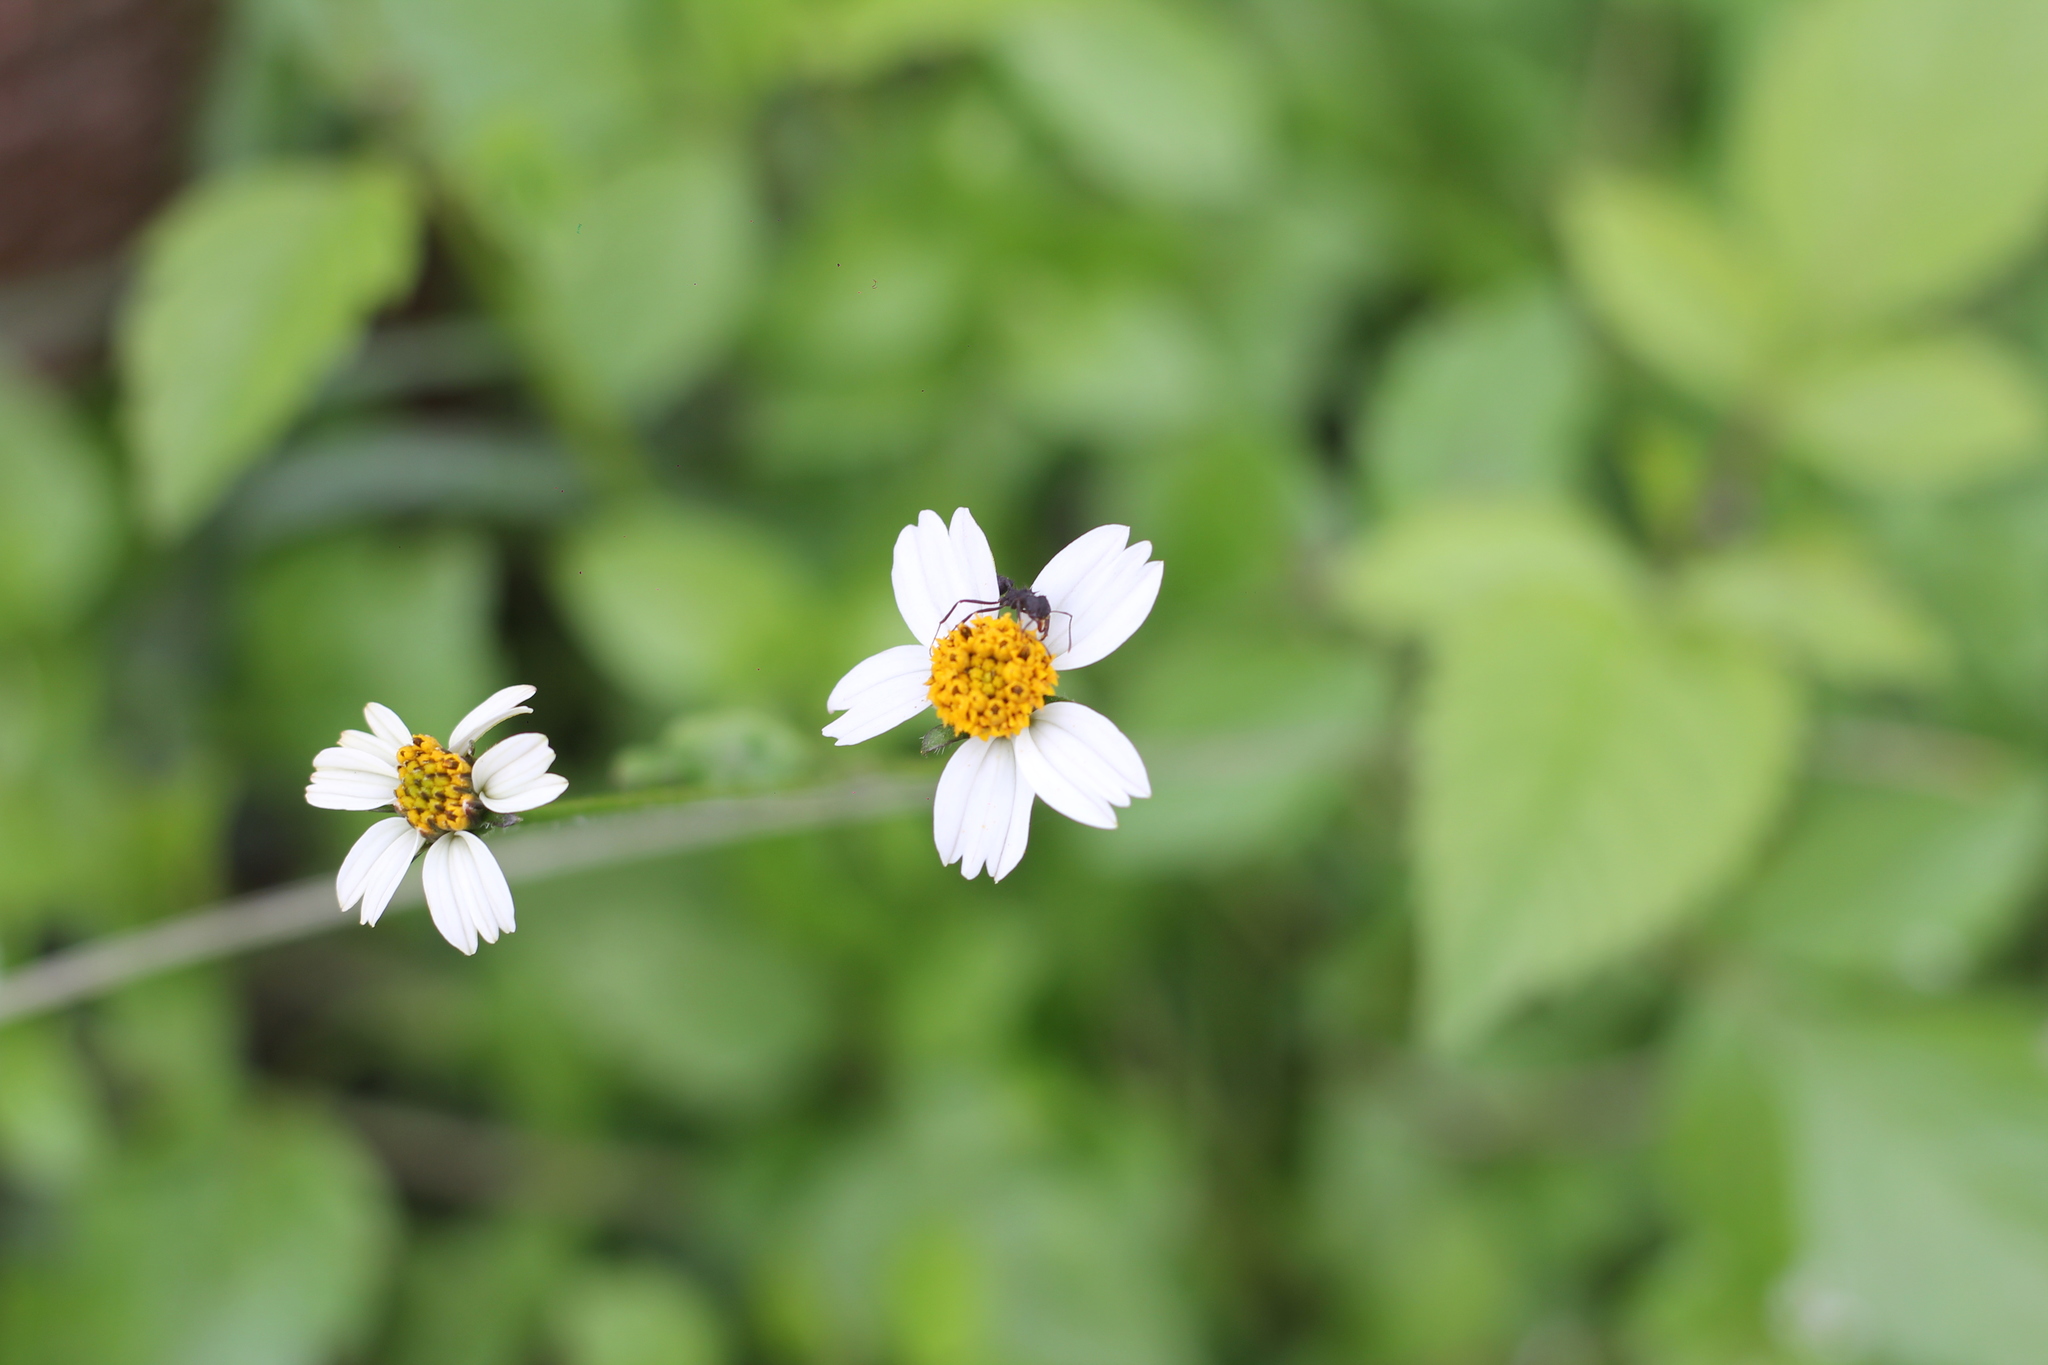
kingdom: Plantae
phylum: Tracheophyta
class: Magnoliopsida
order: Asterales
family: Asteraceae
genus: Bidens
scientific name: Bidens pilosa
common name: Black-jack
